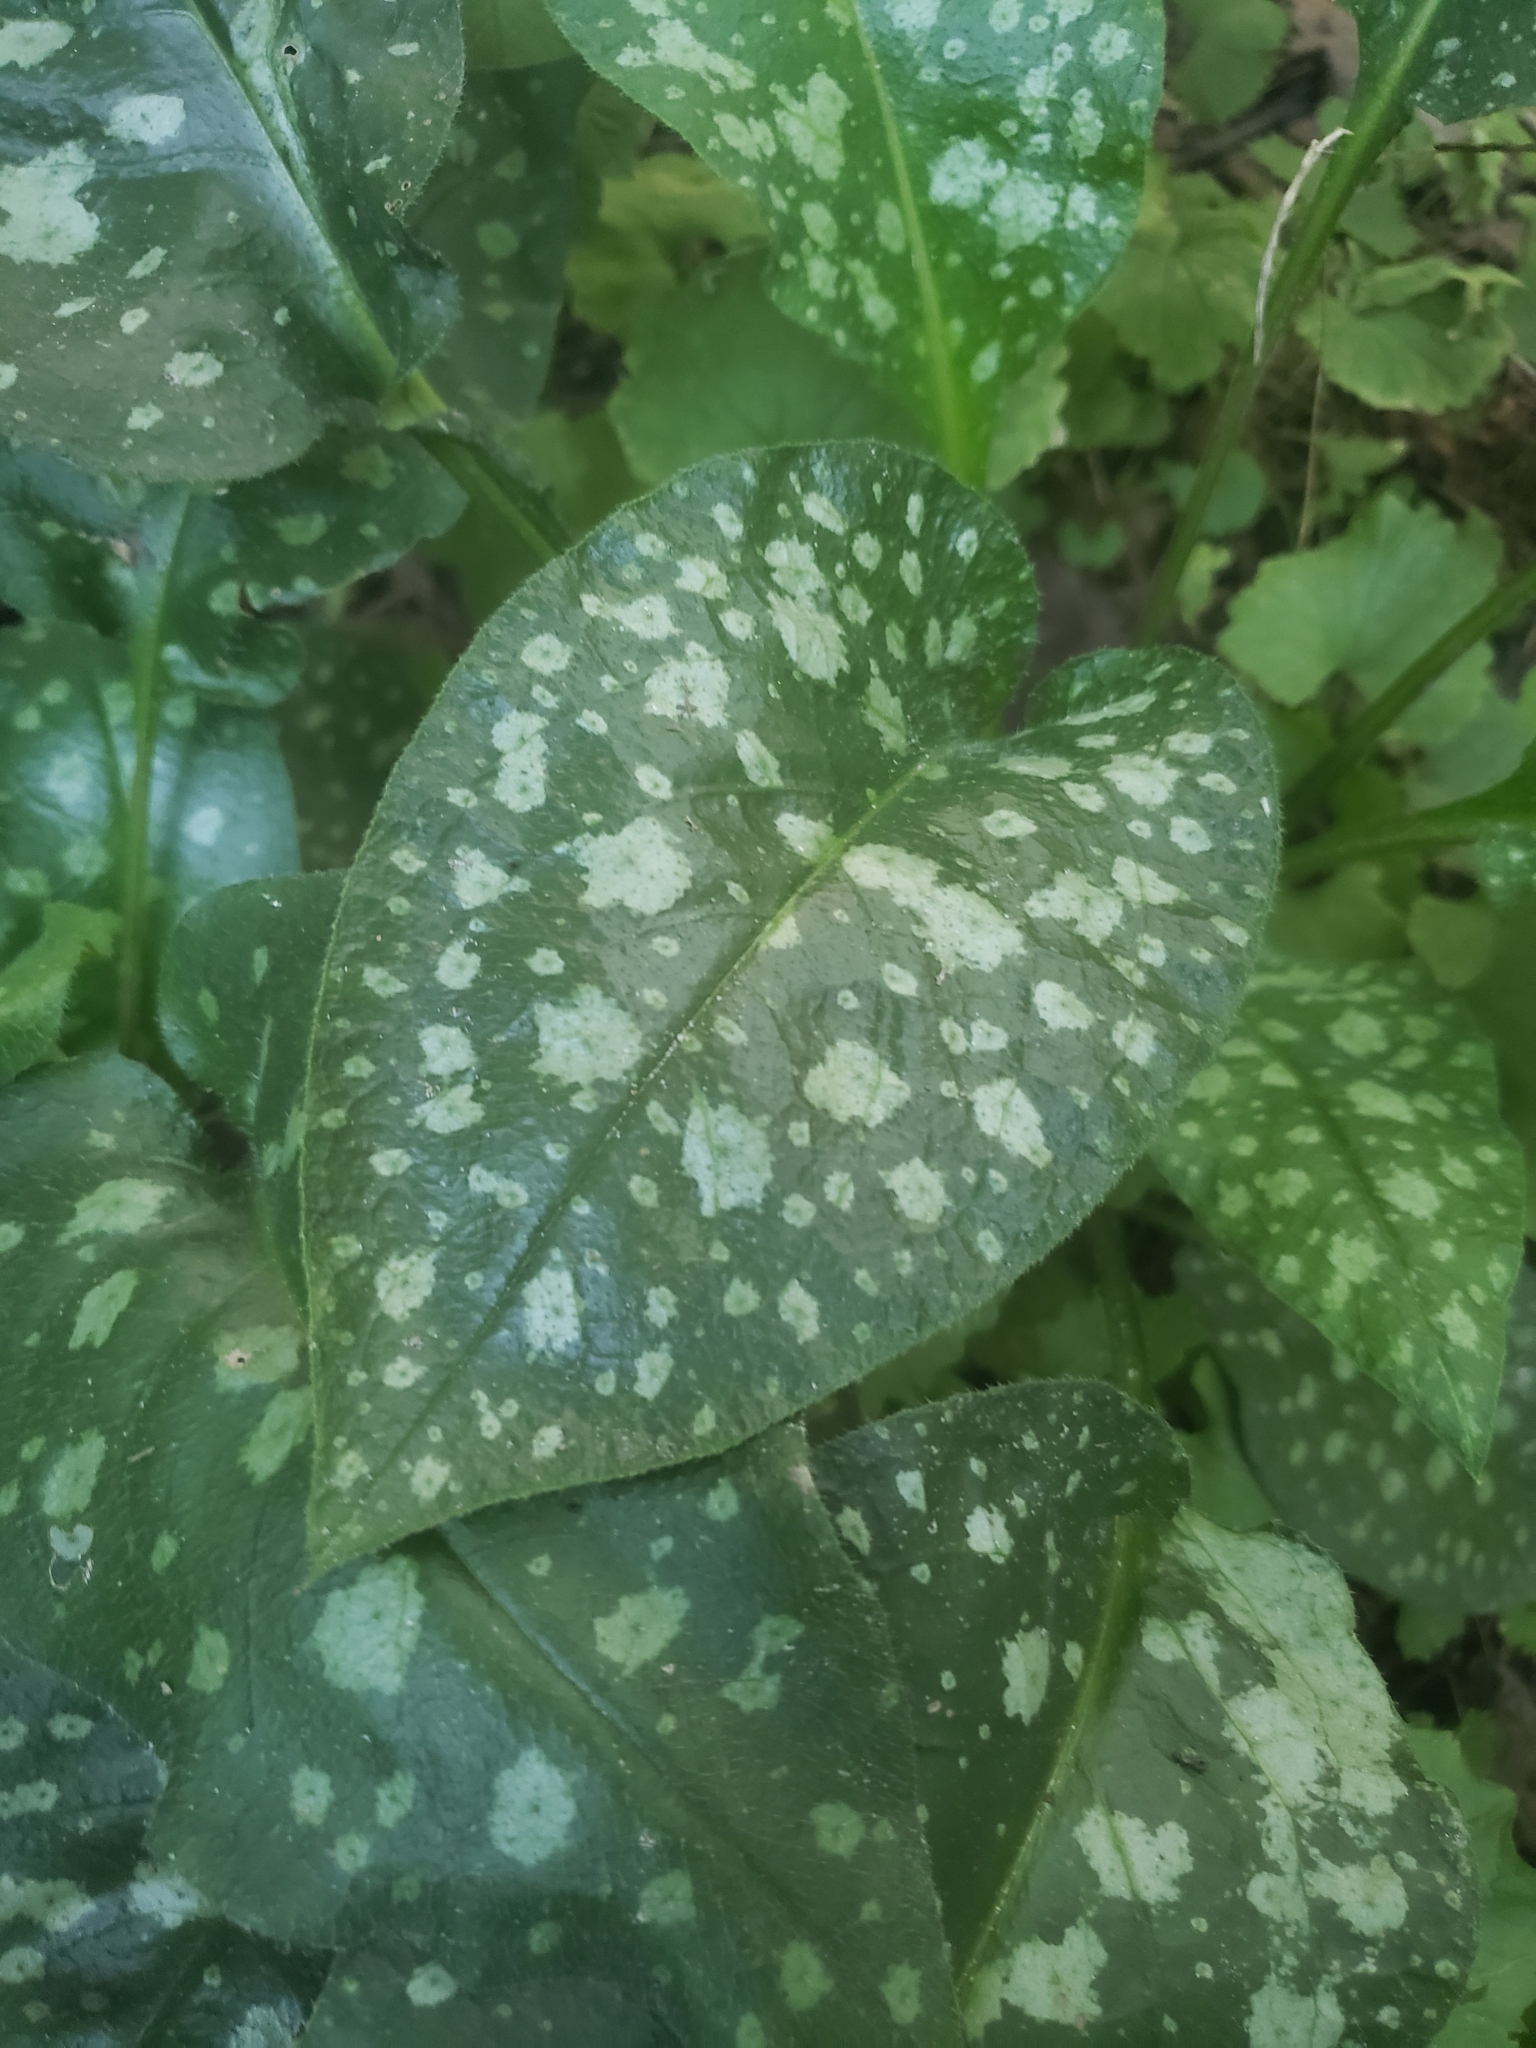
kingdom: Plantae
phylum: Tracheophyta
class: Magnoliopsida
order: Boraginales
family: Boraginaceae
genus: Pulmonaria
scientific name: Pulmonaria officinalis
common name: Lungwort
